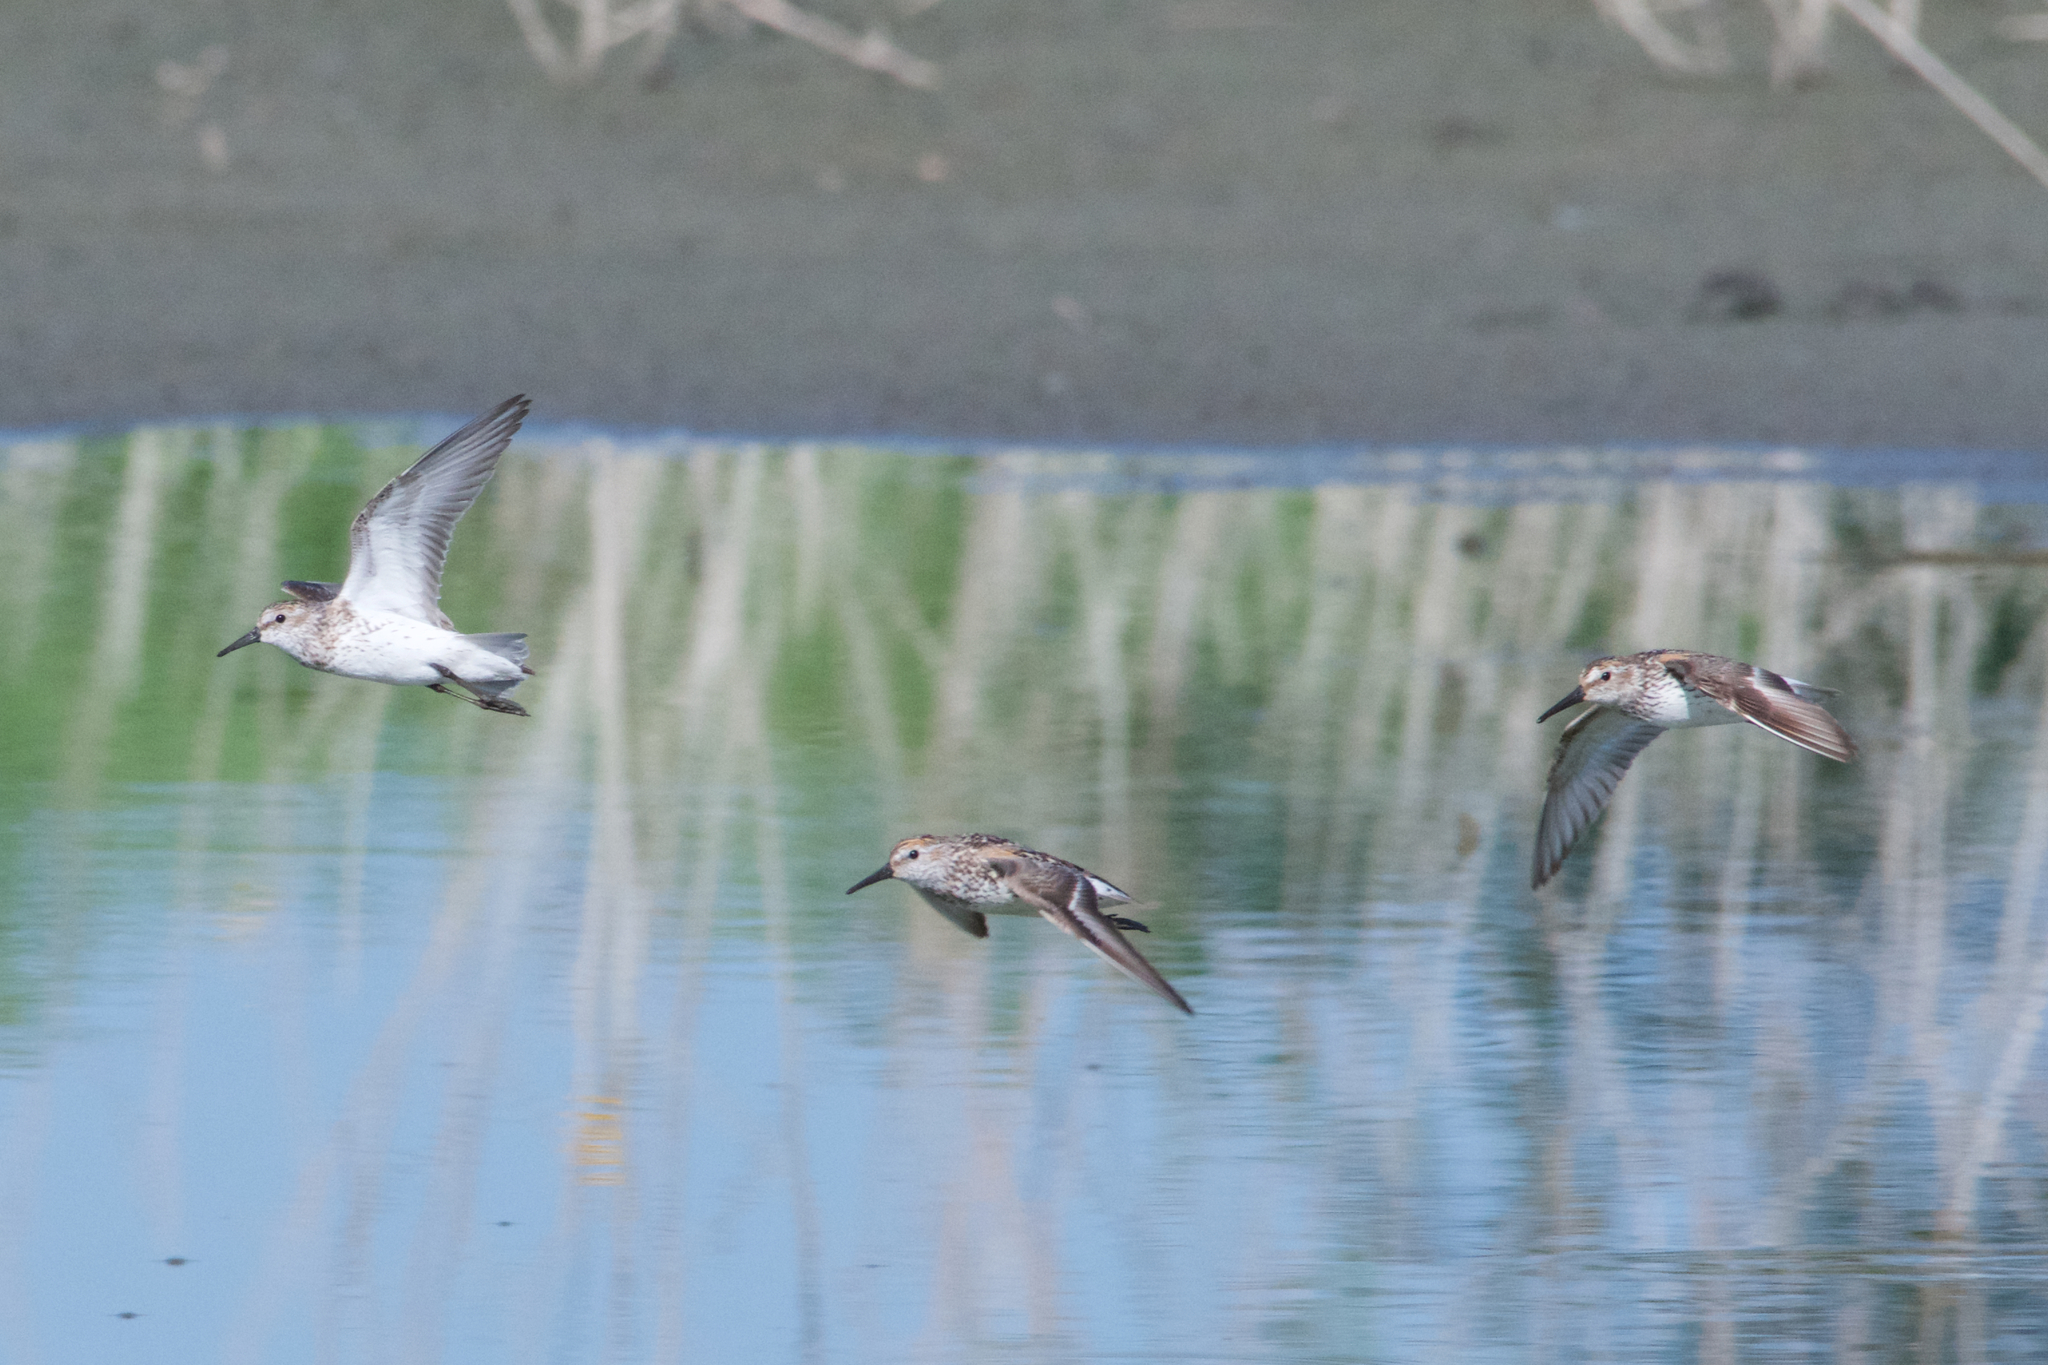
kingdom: Animalia
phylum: Chordata
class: Aves
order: Charadriiformes
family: Scolopacidae
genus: Calidris
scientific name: Calidris mauri
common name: Western sandpiper
